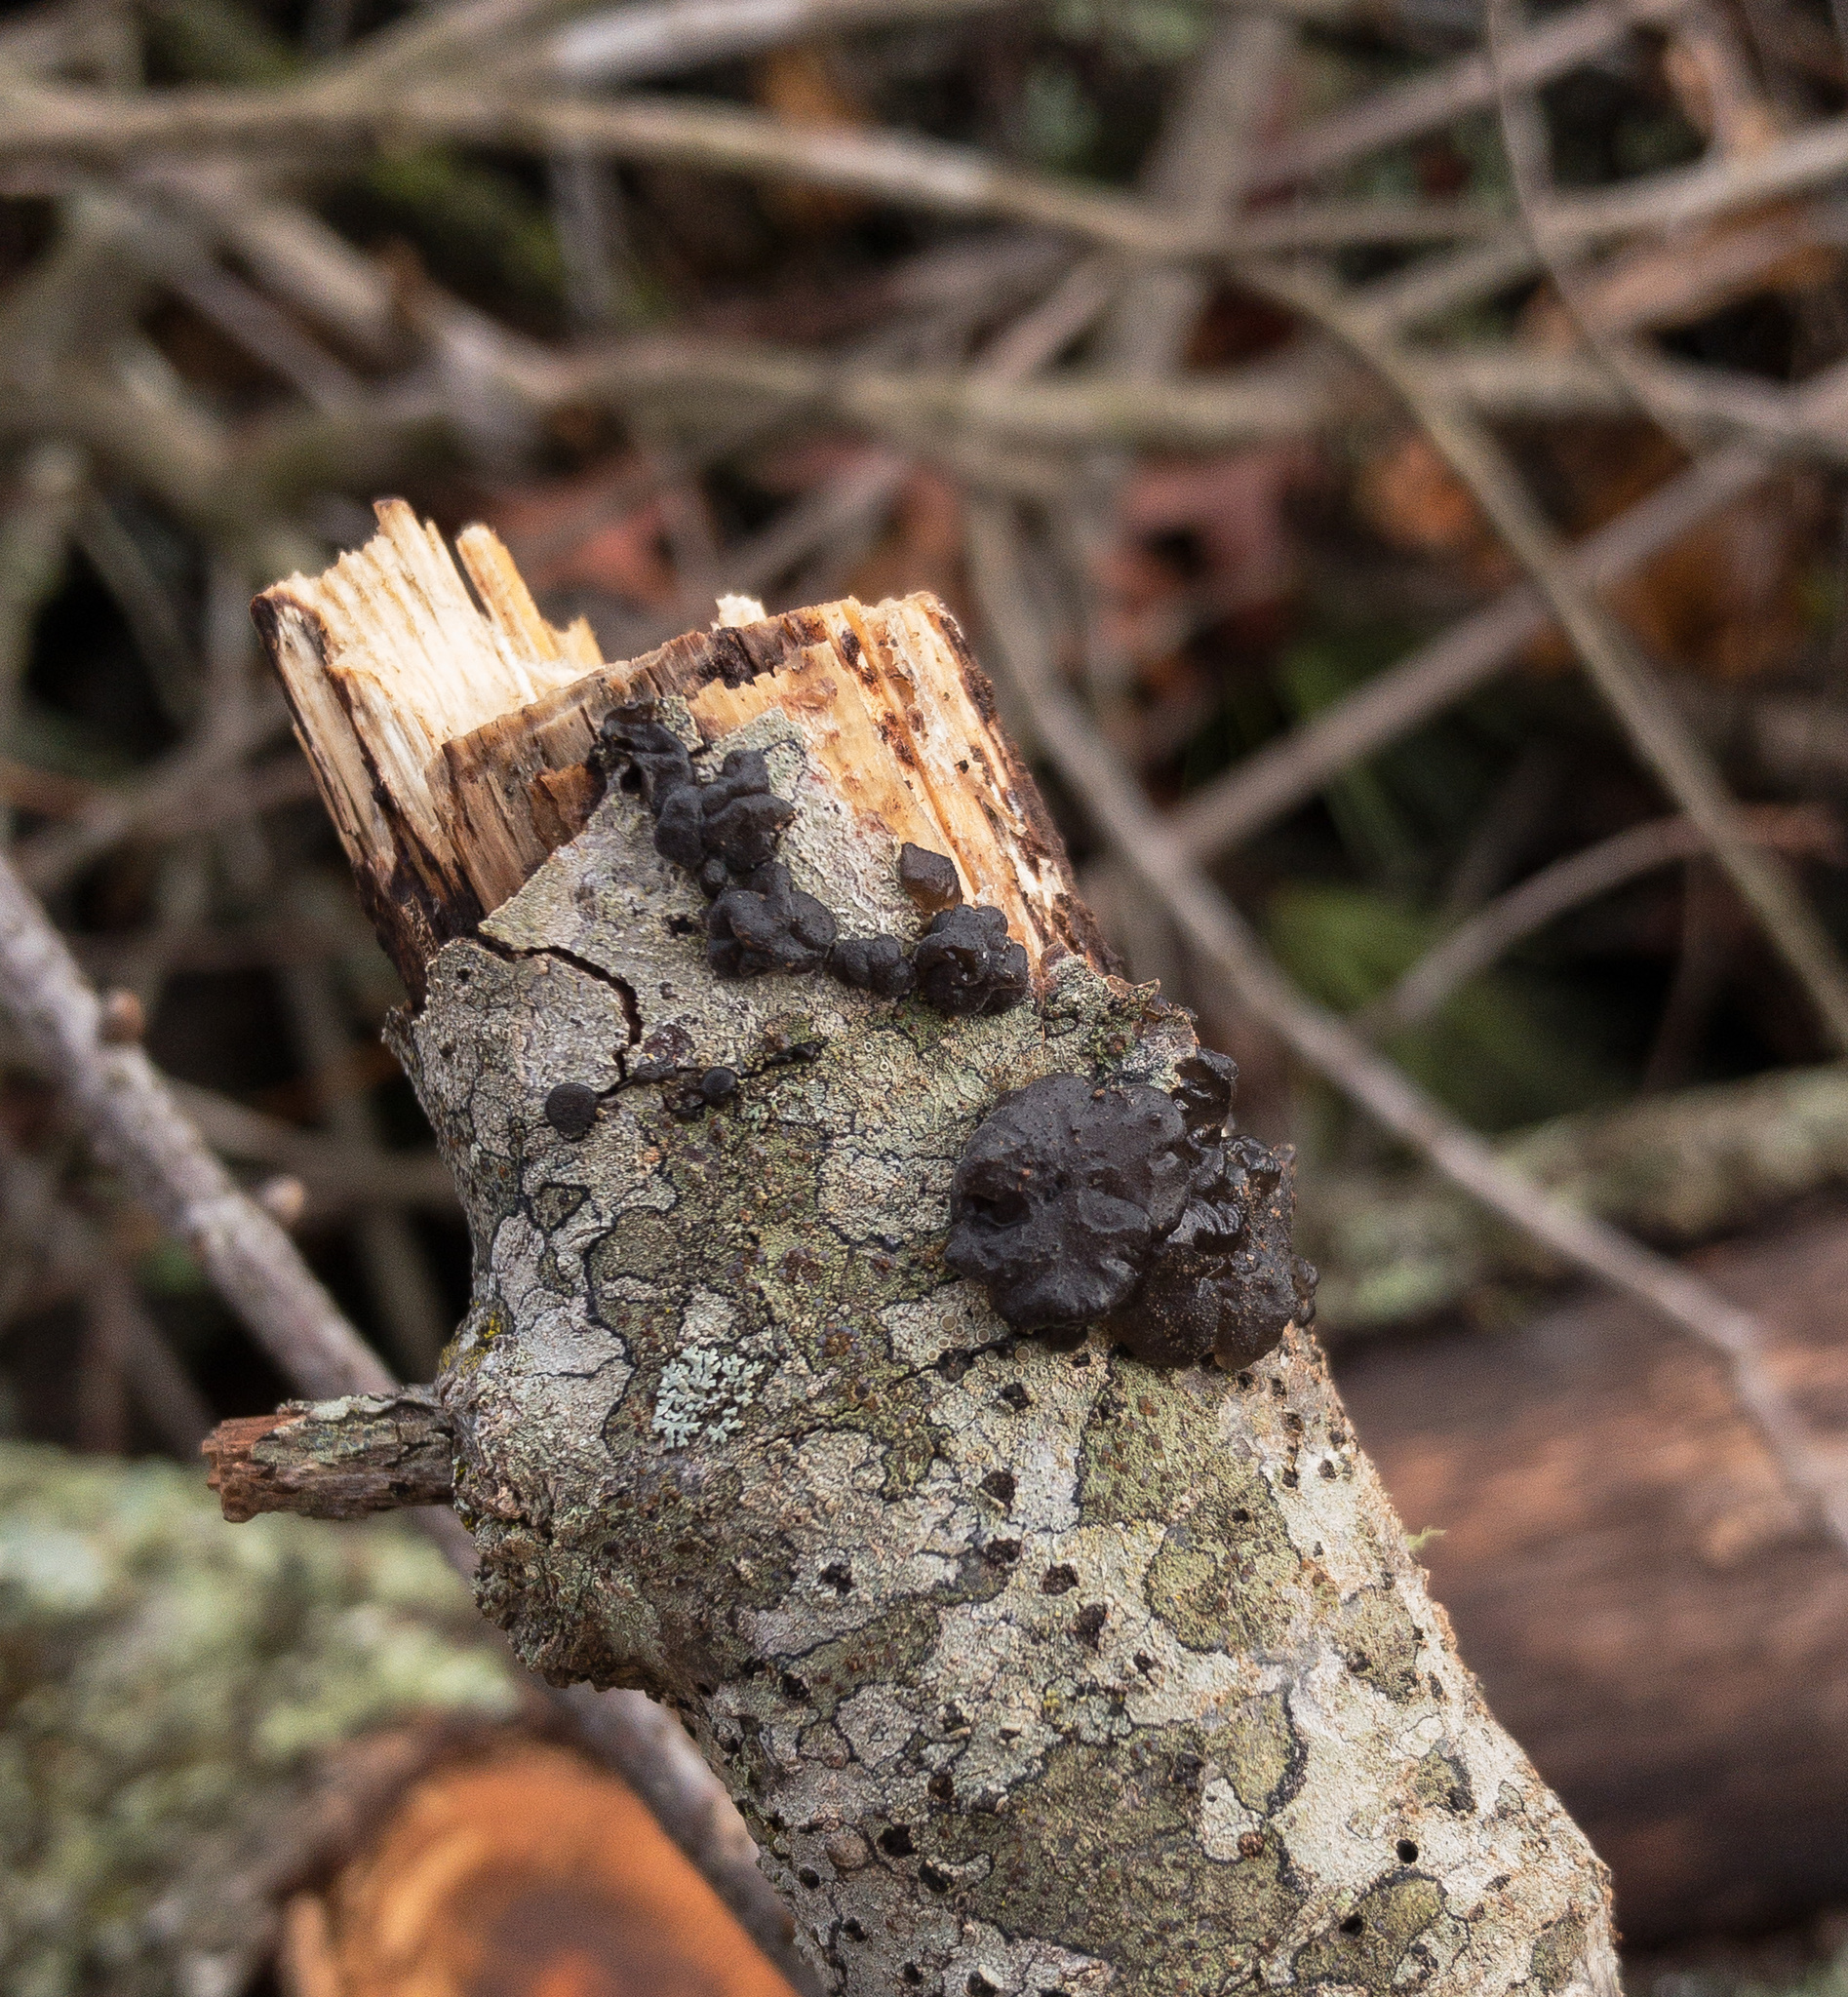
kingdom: Fungi
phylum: Basidiomycota
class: Agaricomycetes
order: Auriculariales
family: Auriculariaceae
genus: Exidia
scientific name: Exidia glandulosa
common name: Witches' butter
